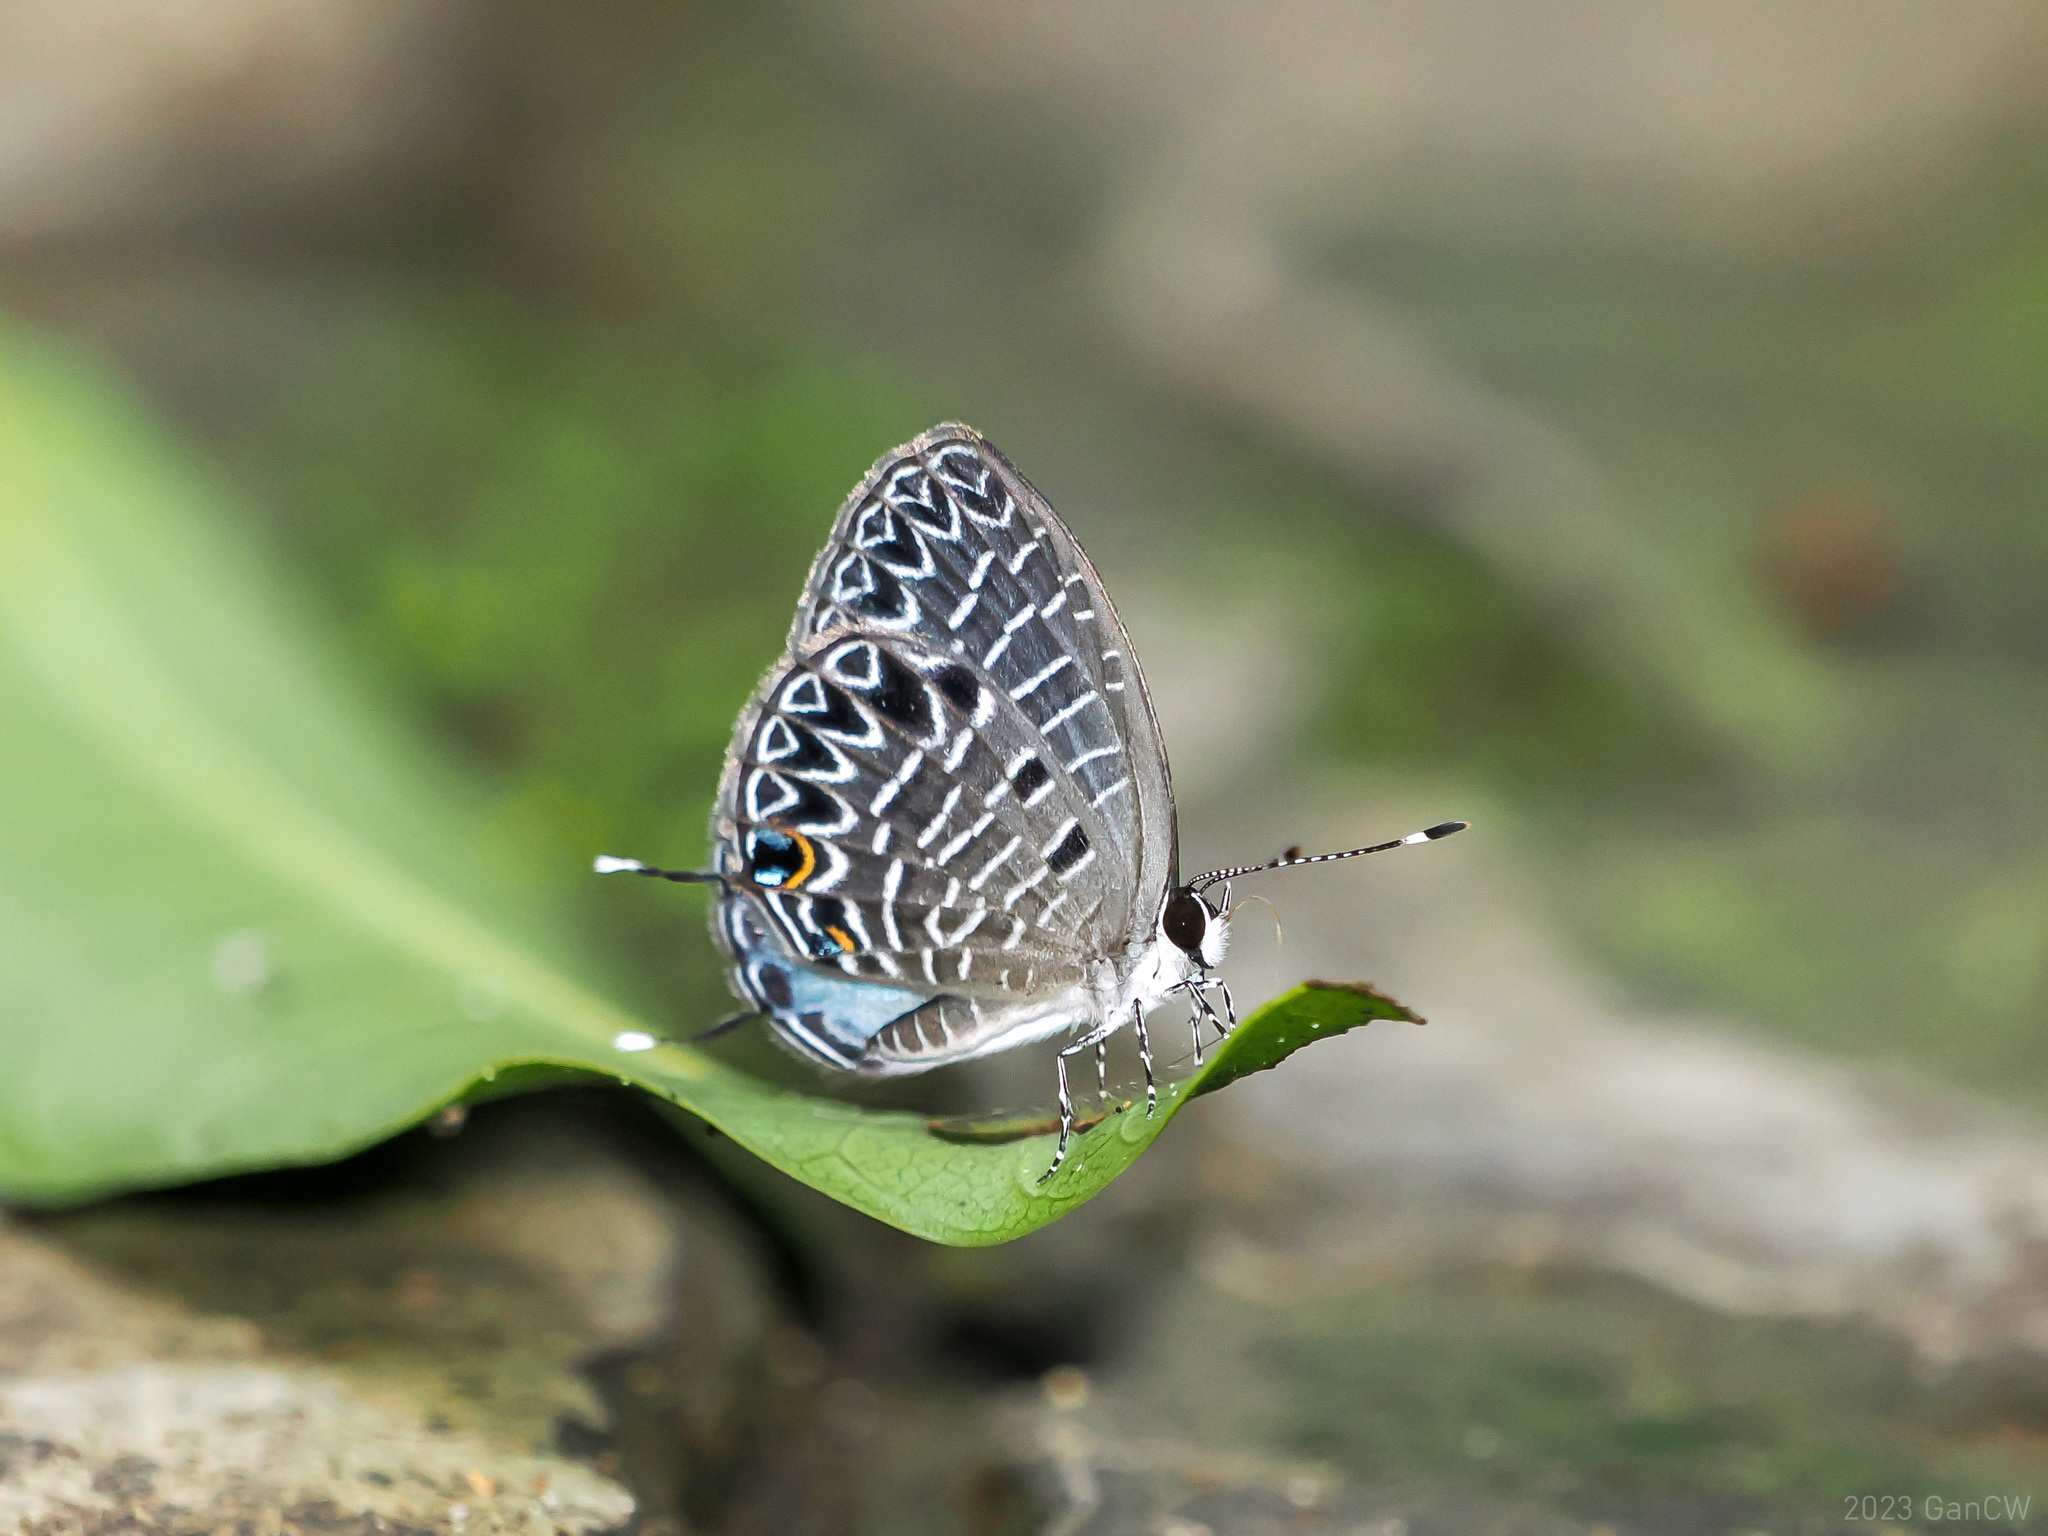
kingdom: Animalia
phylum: Arthropoda
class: Insecta
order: Lepidoptera
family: Lycaenidae
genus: Jamides
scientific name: Jamides
